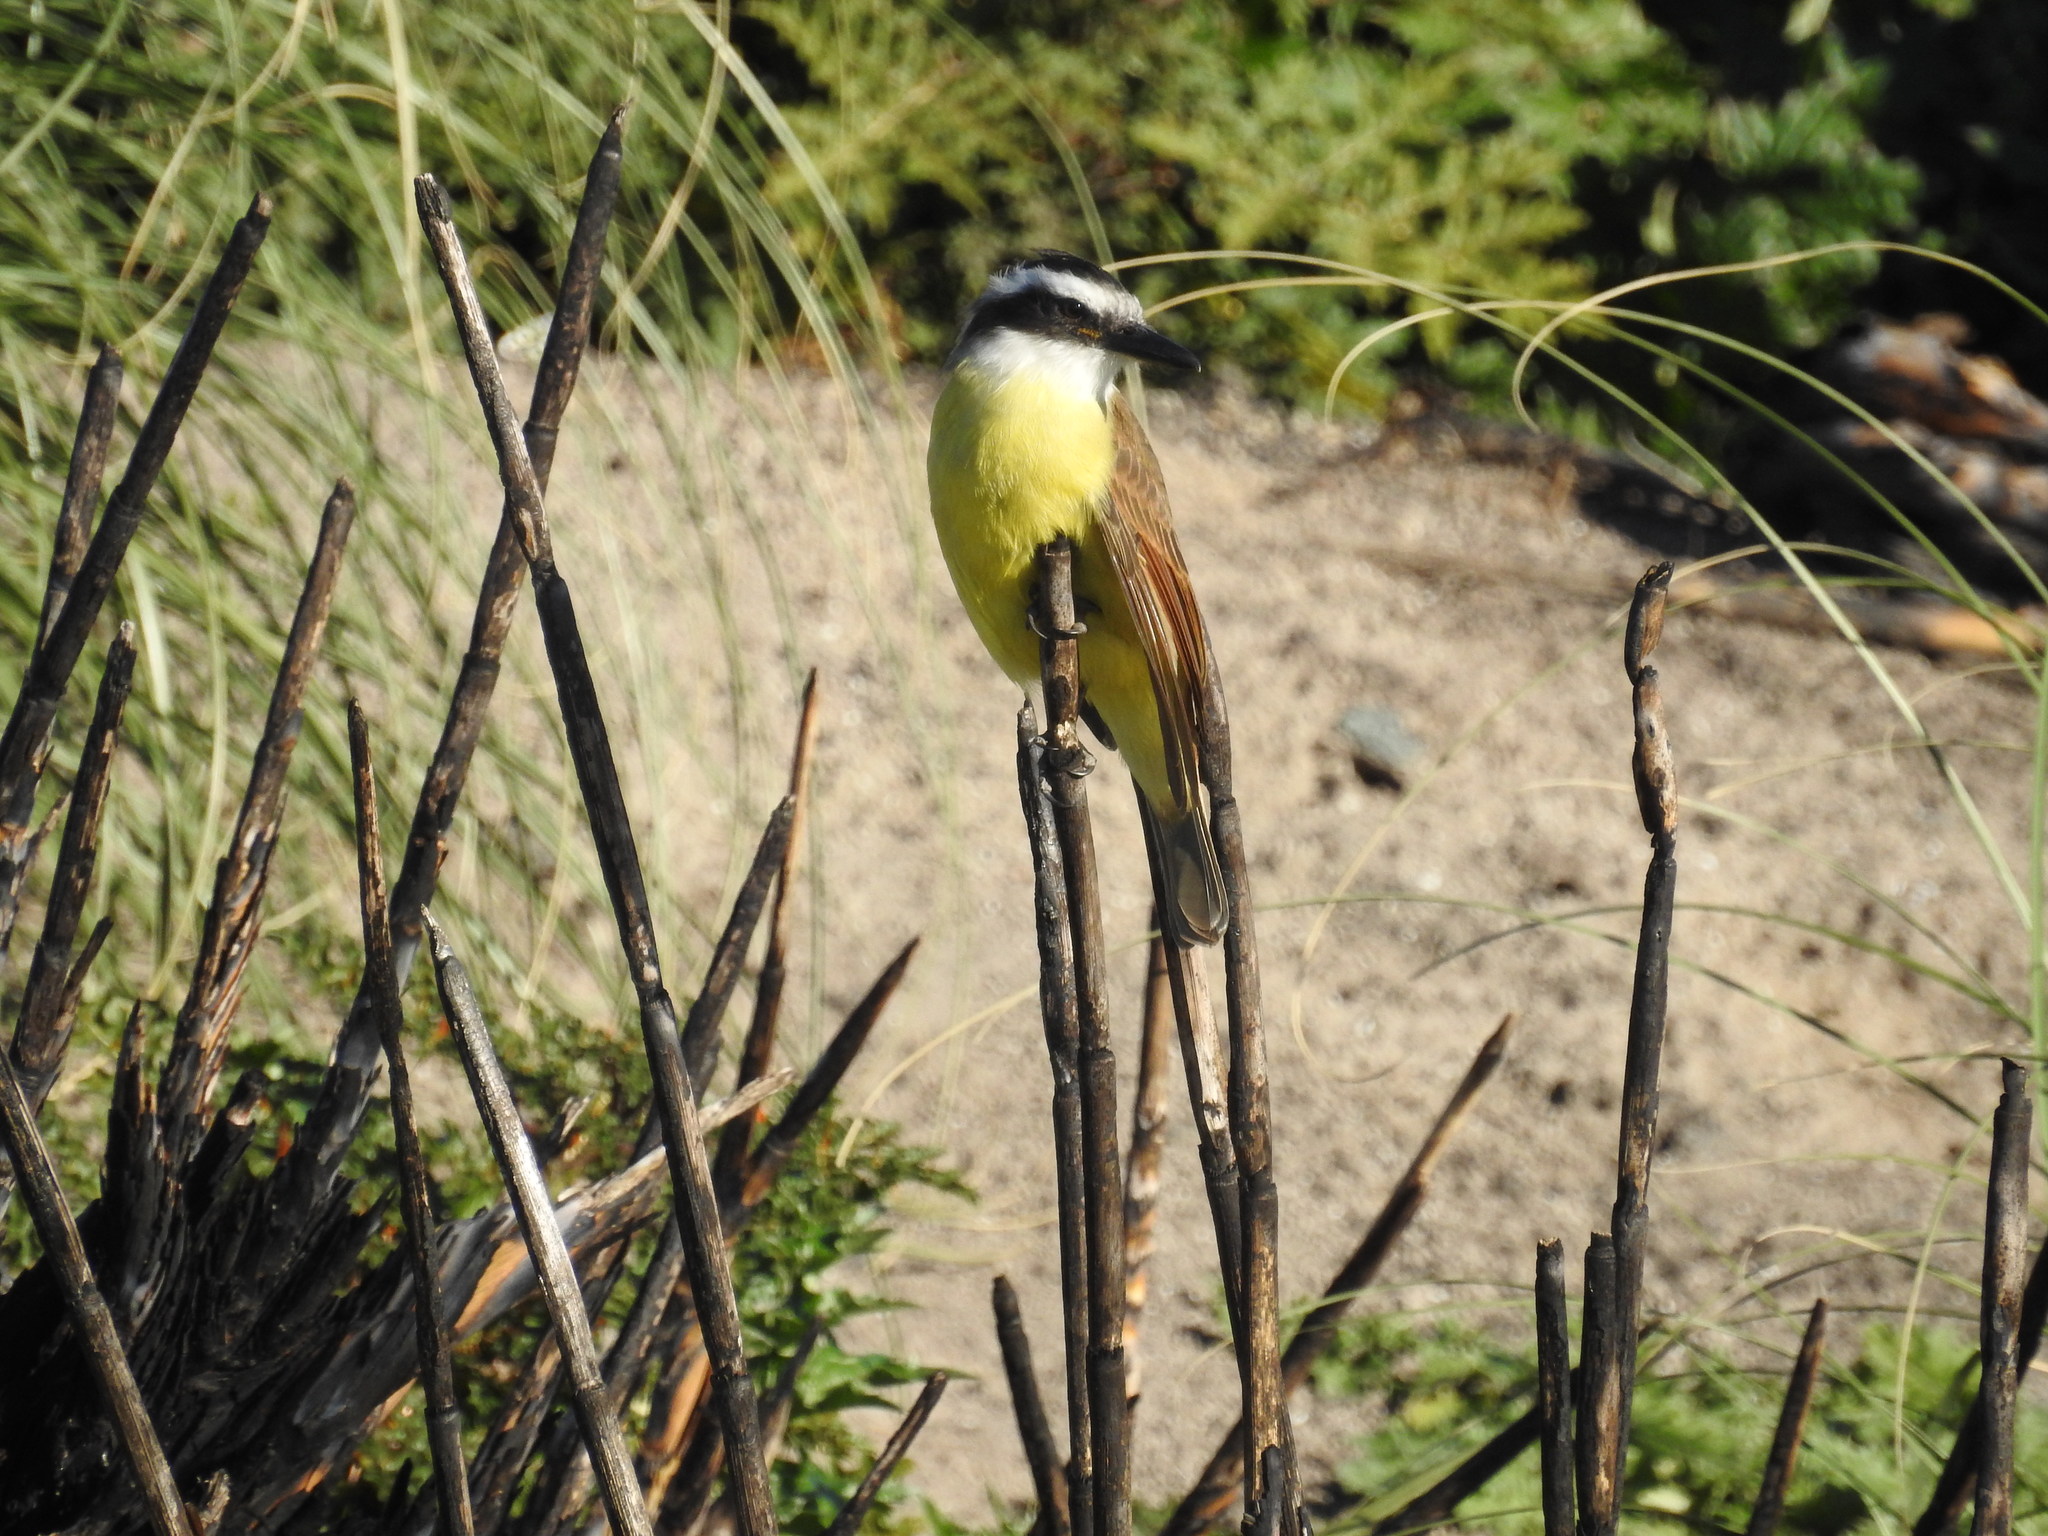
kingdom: Animalia
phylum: Chordata
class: Aves
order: Passeriformes
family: Tyrannidae
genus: Pitangus
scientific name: Pitangus sulphuratus
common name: Great kiskadee
